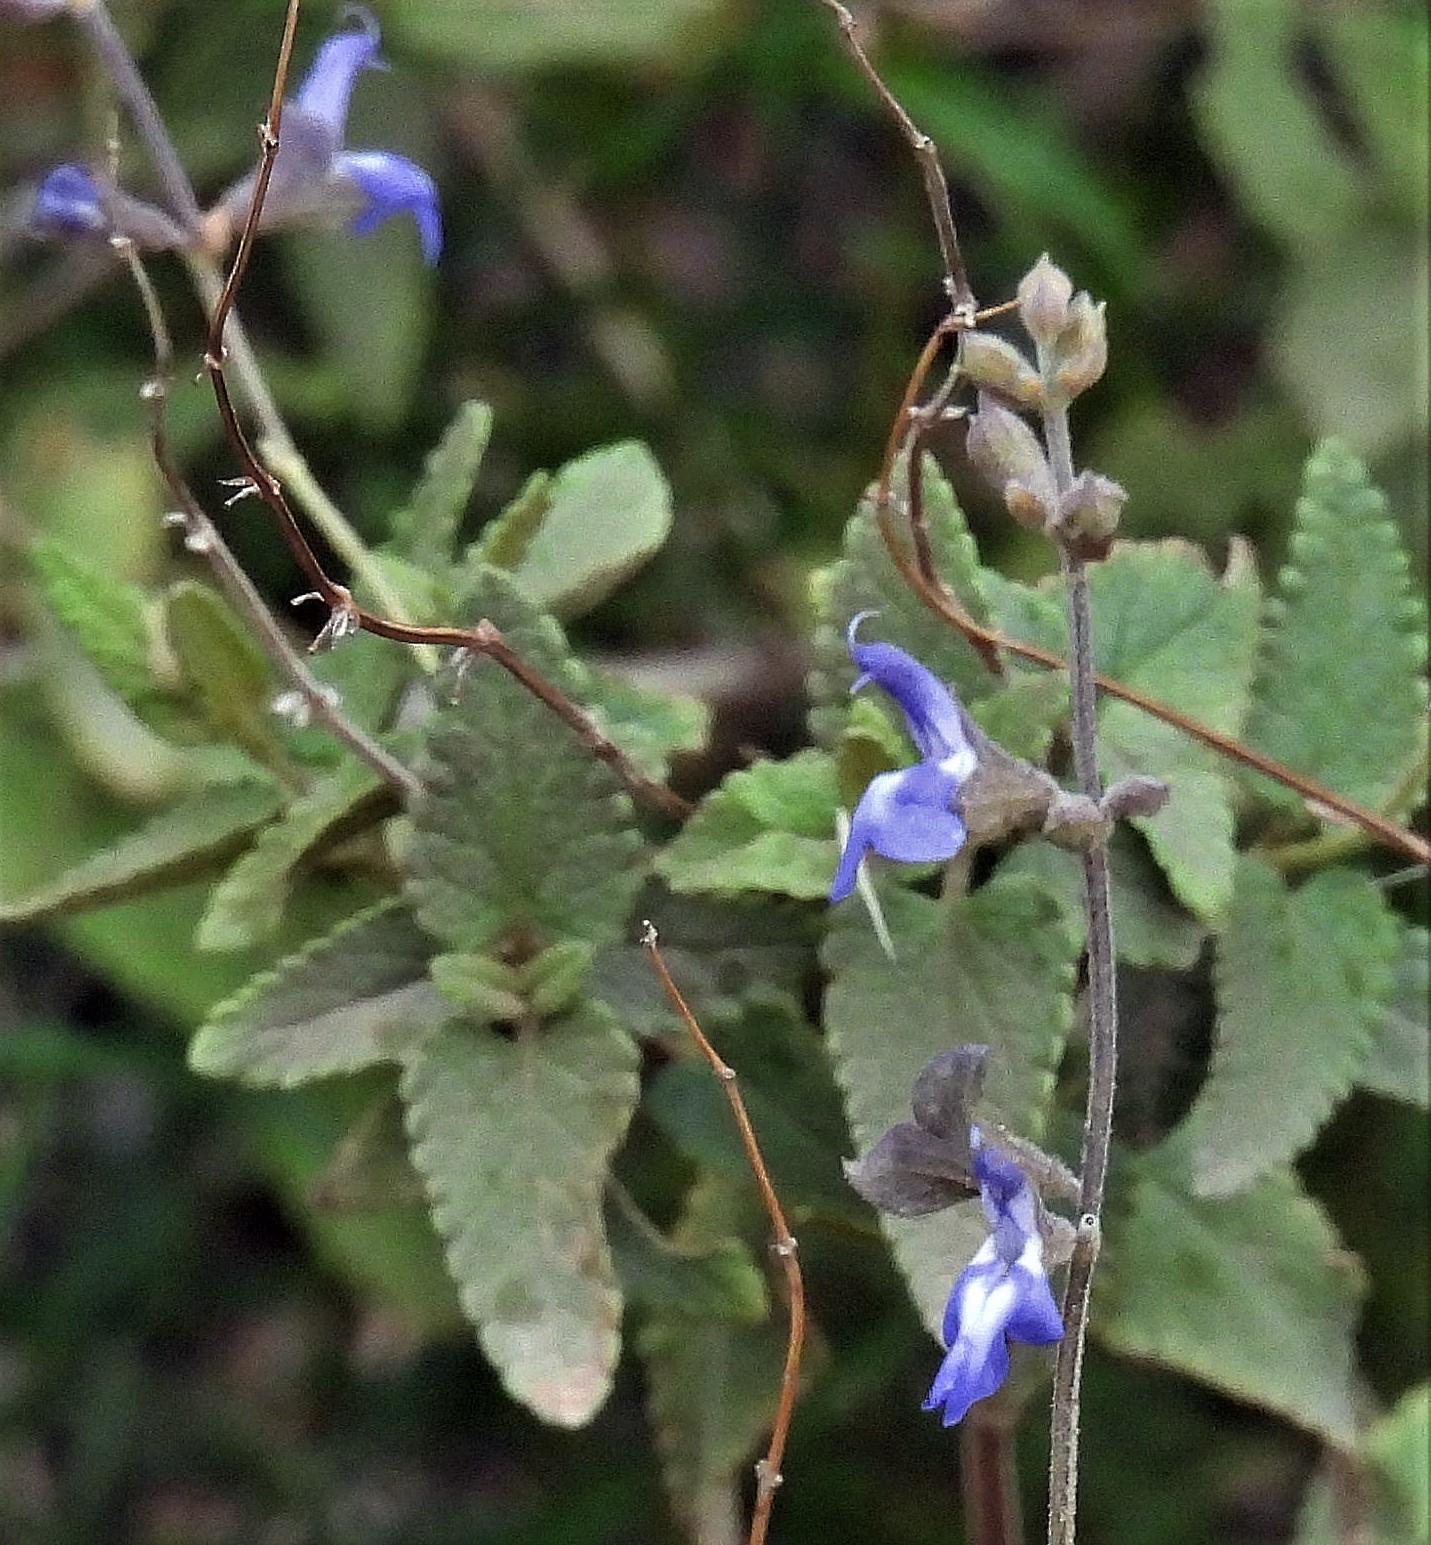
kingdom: Plantae
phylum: Tracheophyta
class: Magnoliopsida
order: Lamiales
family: Lamiaceae
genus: Salvia
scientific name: Salvia cuspidata
